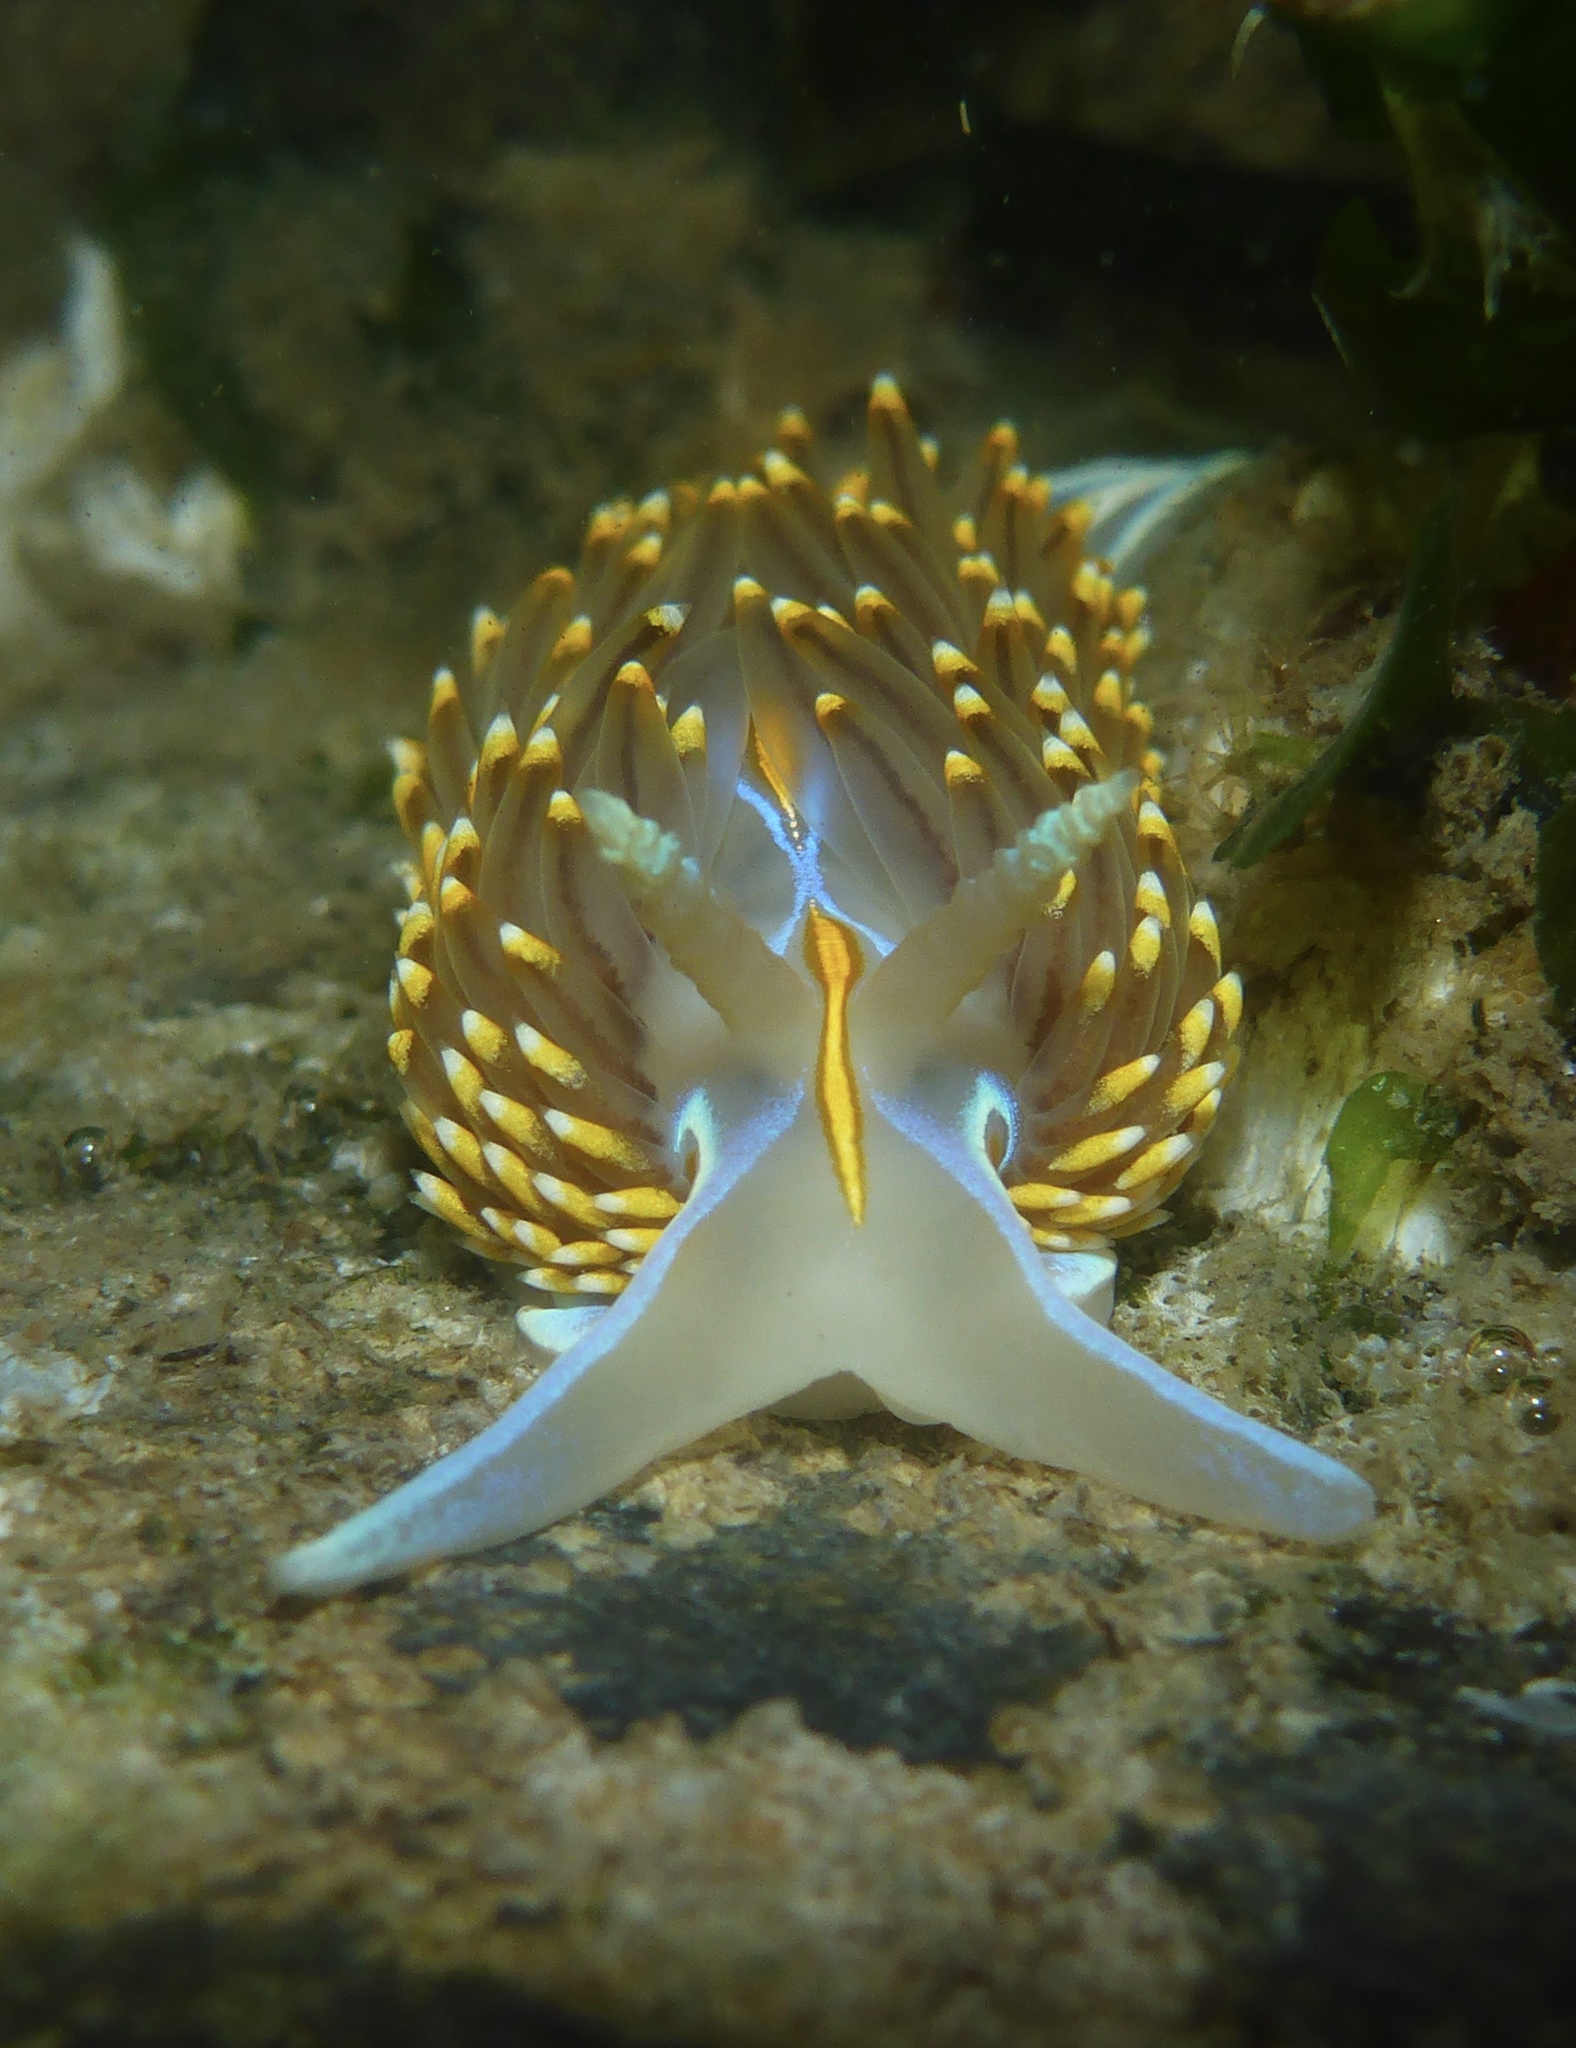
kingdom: Animalia
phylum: Mollusca
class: Gastropoda
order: Nudibranchia
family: Myrrhinidae
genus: Hermissenda
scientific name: Hermissenda opalescens
